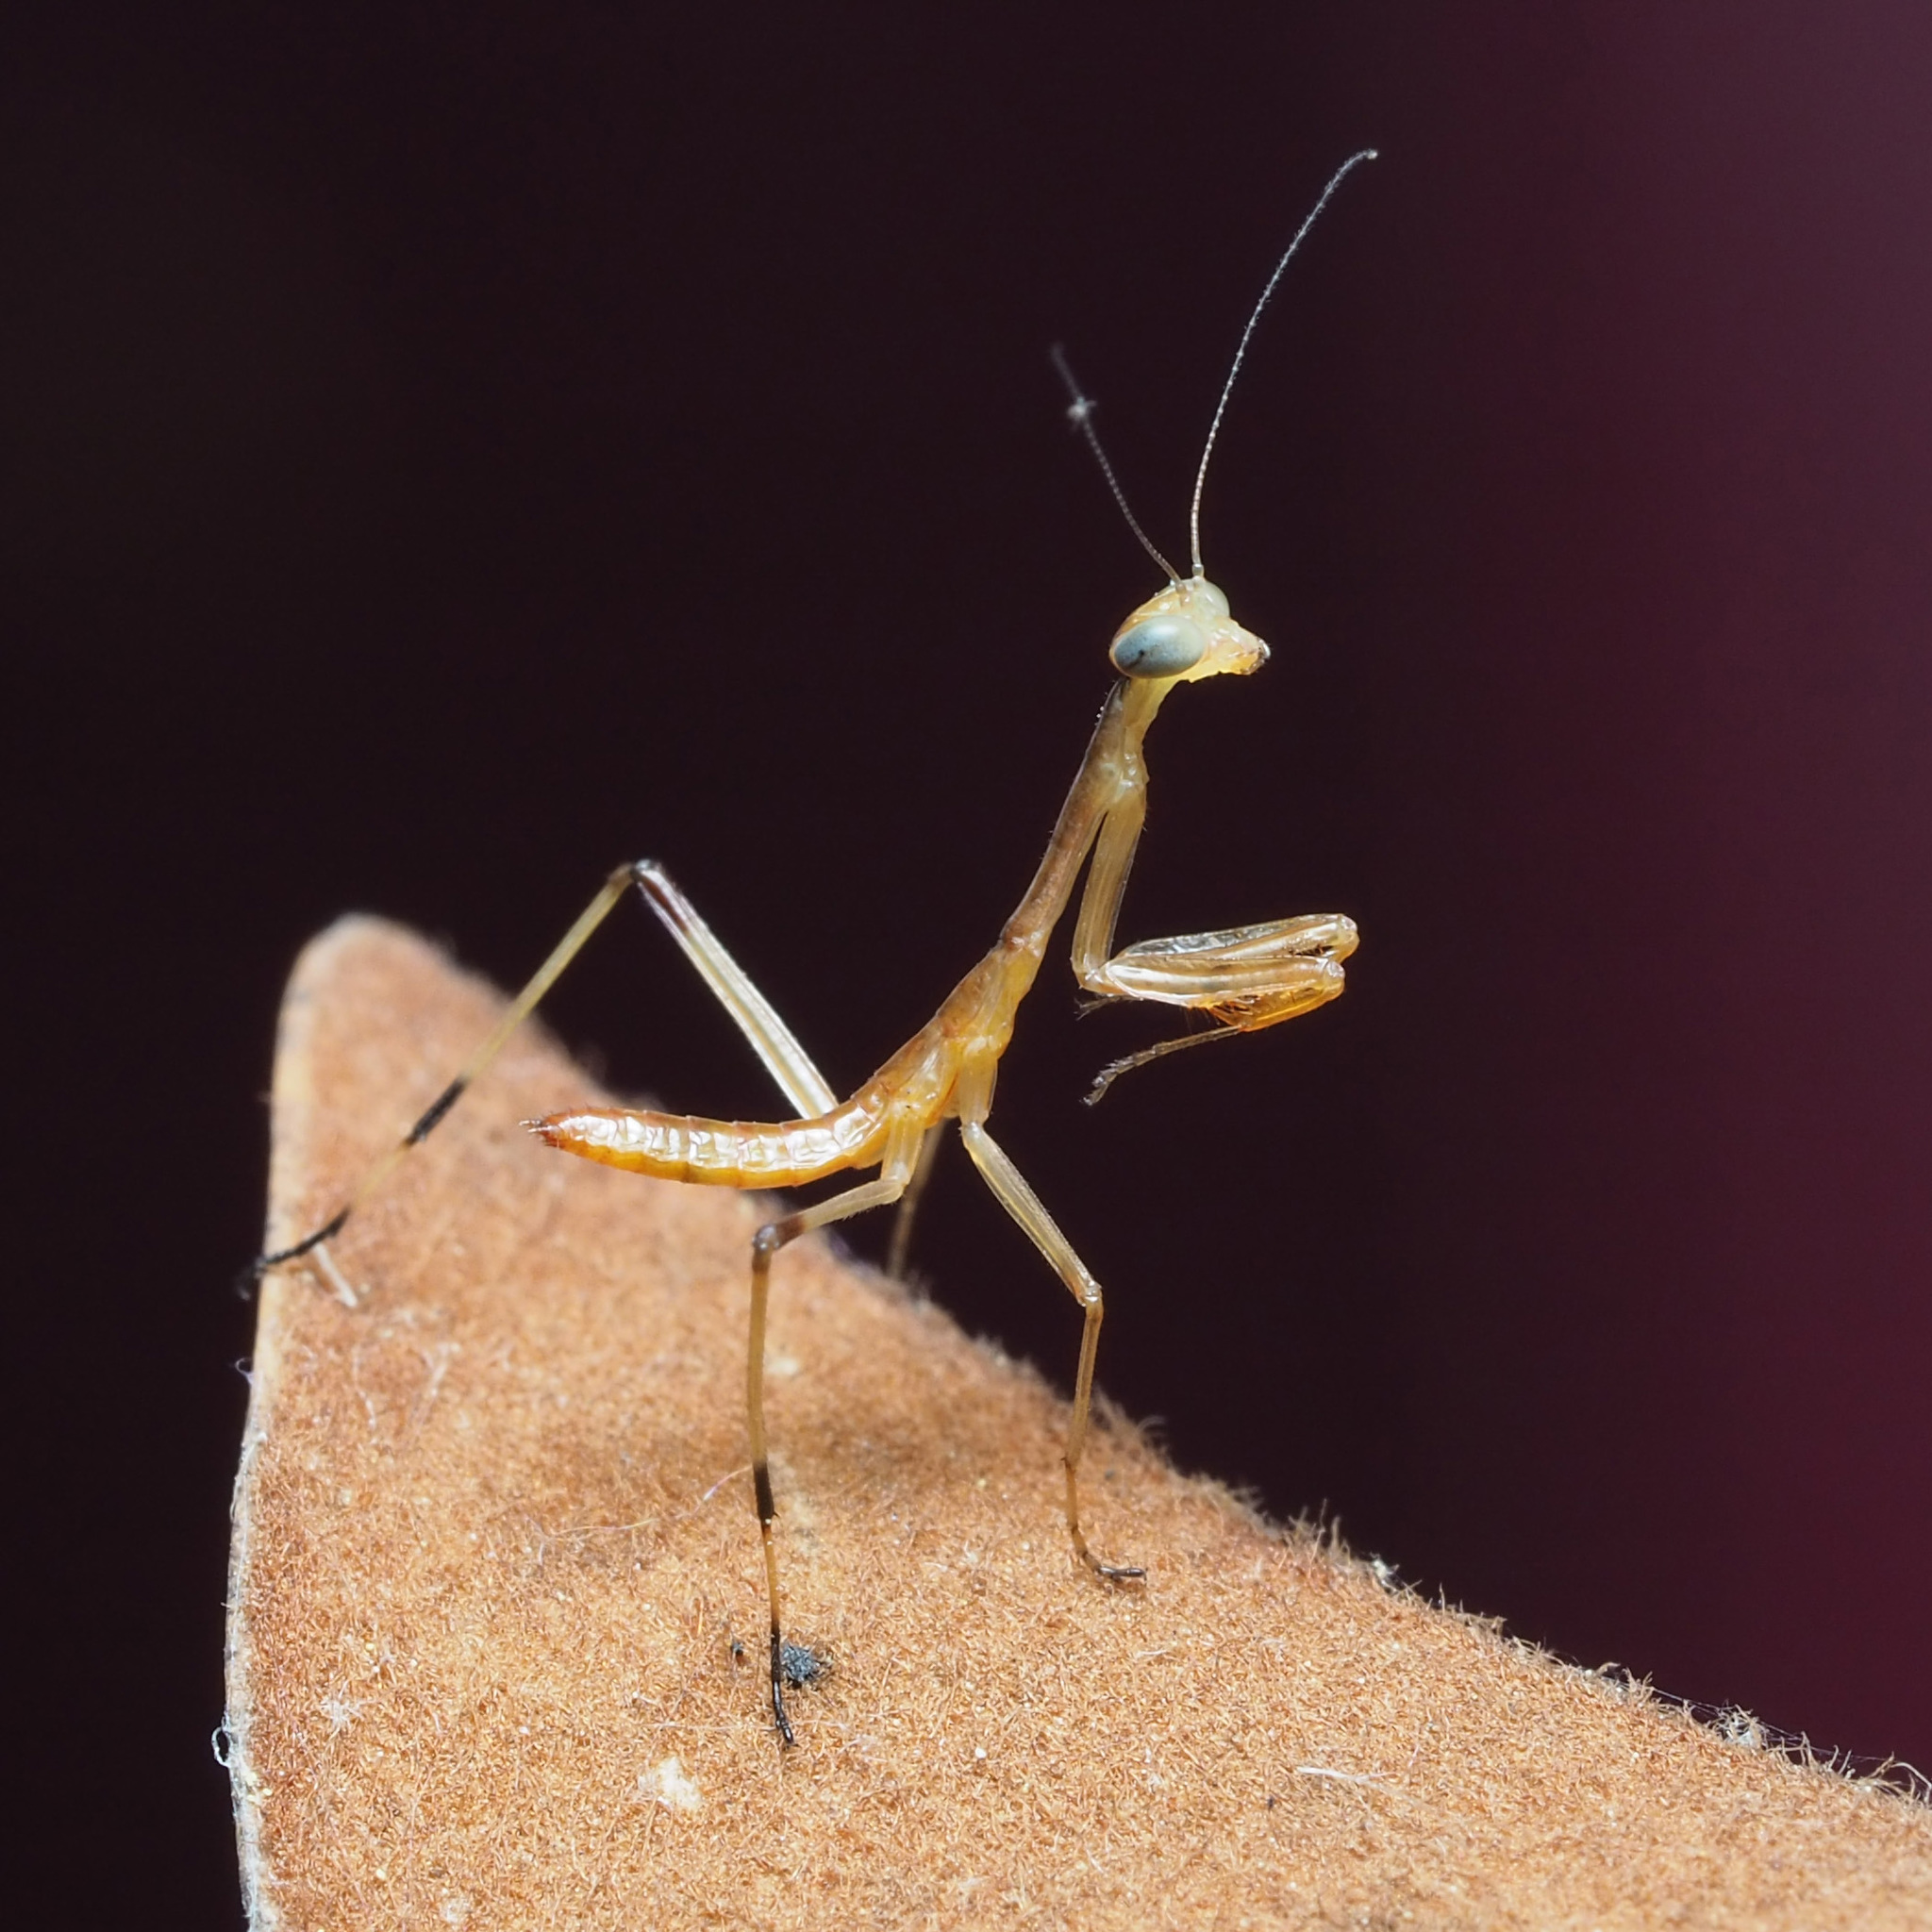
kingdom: Animalia
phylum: Arthropoda
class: Insecta
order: Mantodea
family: Mantidae
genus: Stagmomantis
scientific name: Stagmomantis carolina
